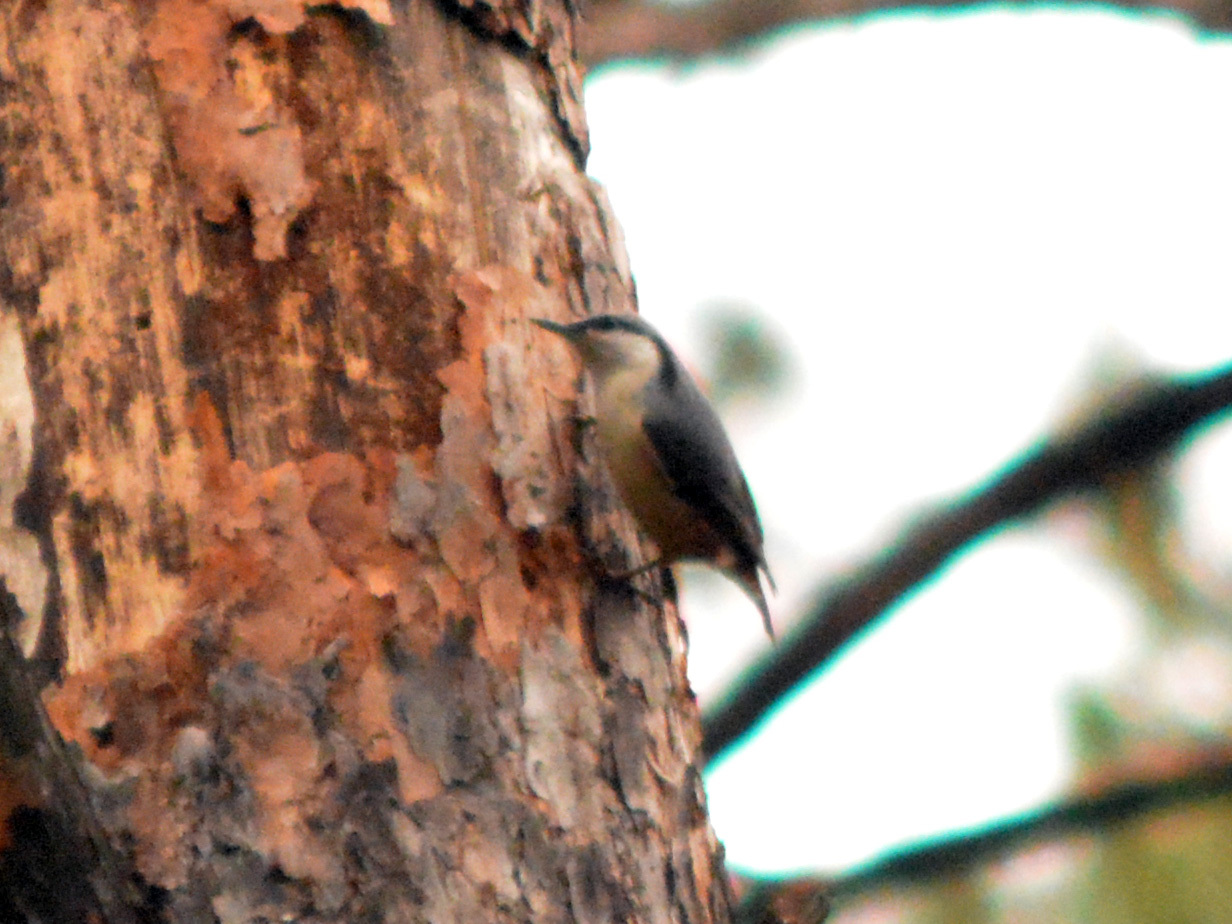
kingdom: Animalia
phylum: Chordata
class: Aves
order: Passeriformes
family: Sittidae
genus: Sitta
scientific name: Sitta europaea
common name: Eurasian nuthatch
